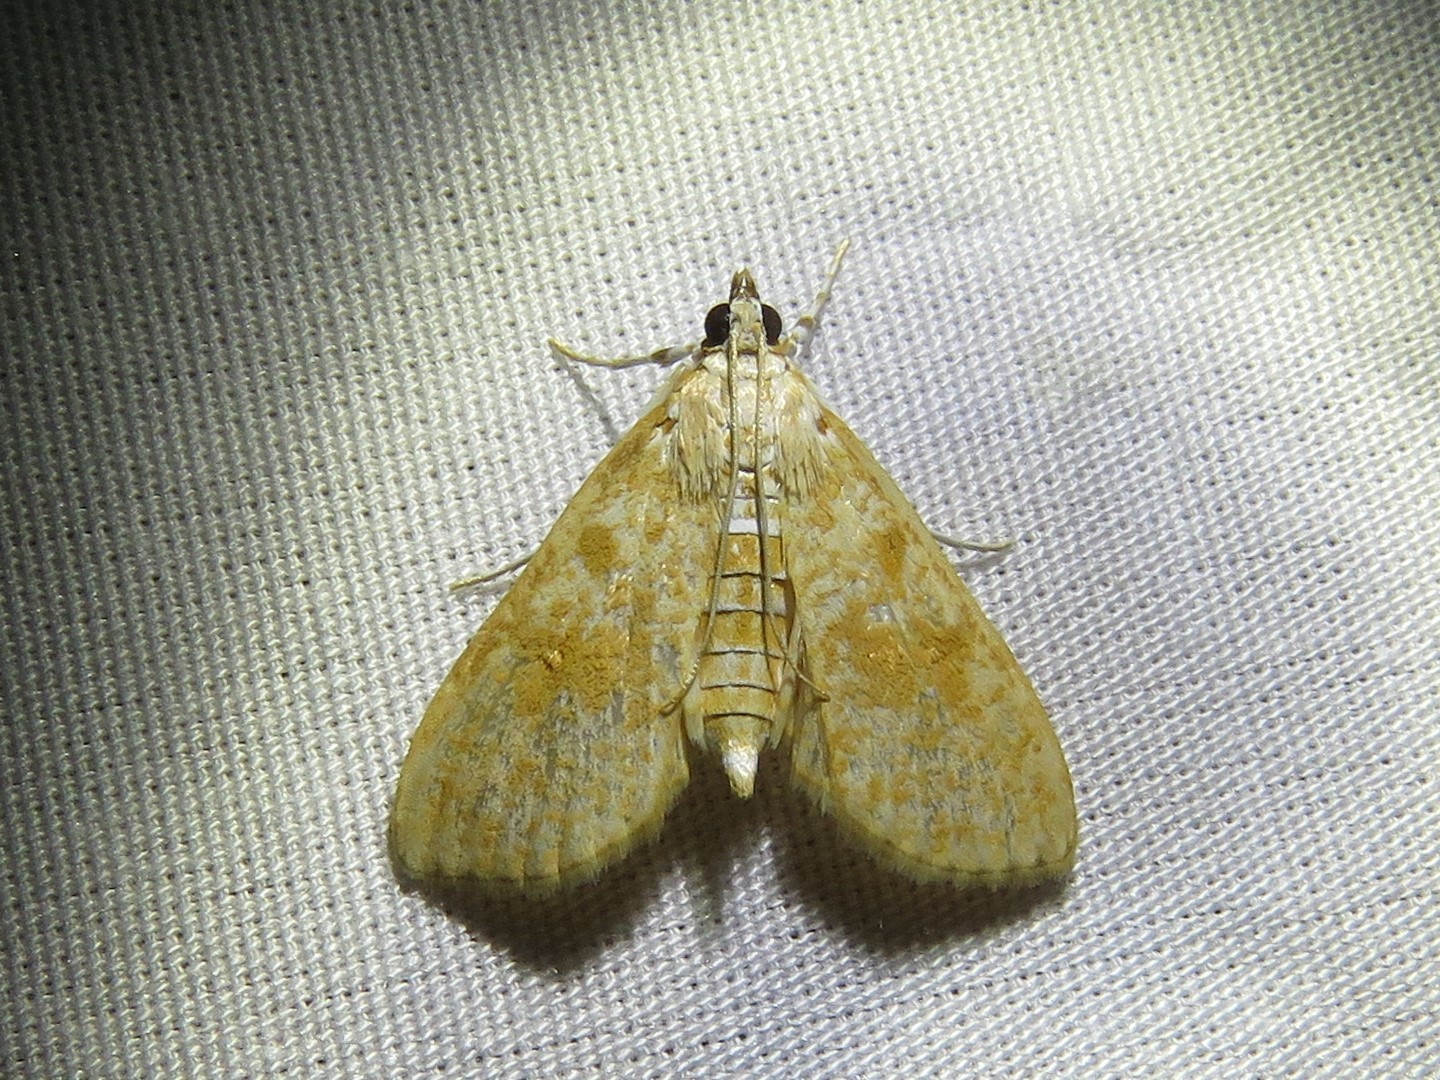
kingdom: Animalia
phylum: Arthropoda
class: Insecta
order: Lepidoptera
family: Crambidae
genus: Palpita
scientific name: Palpita freemanalis
